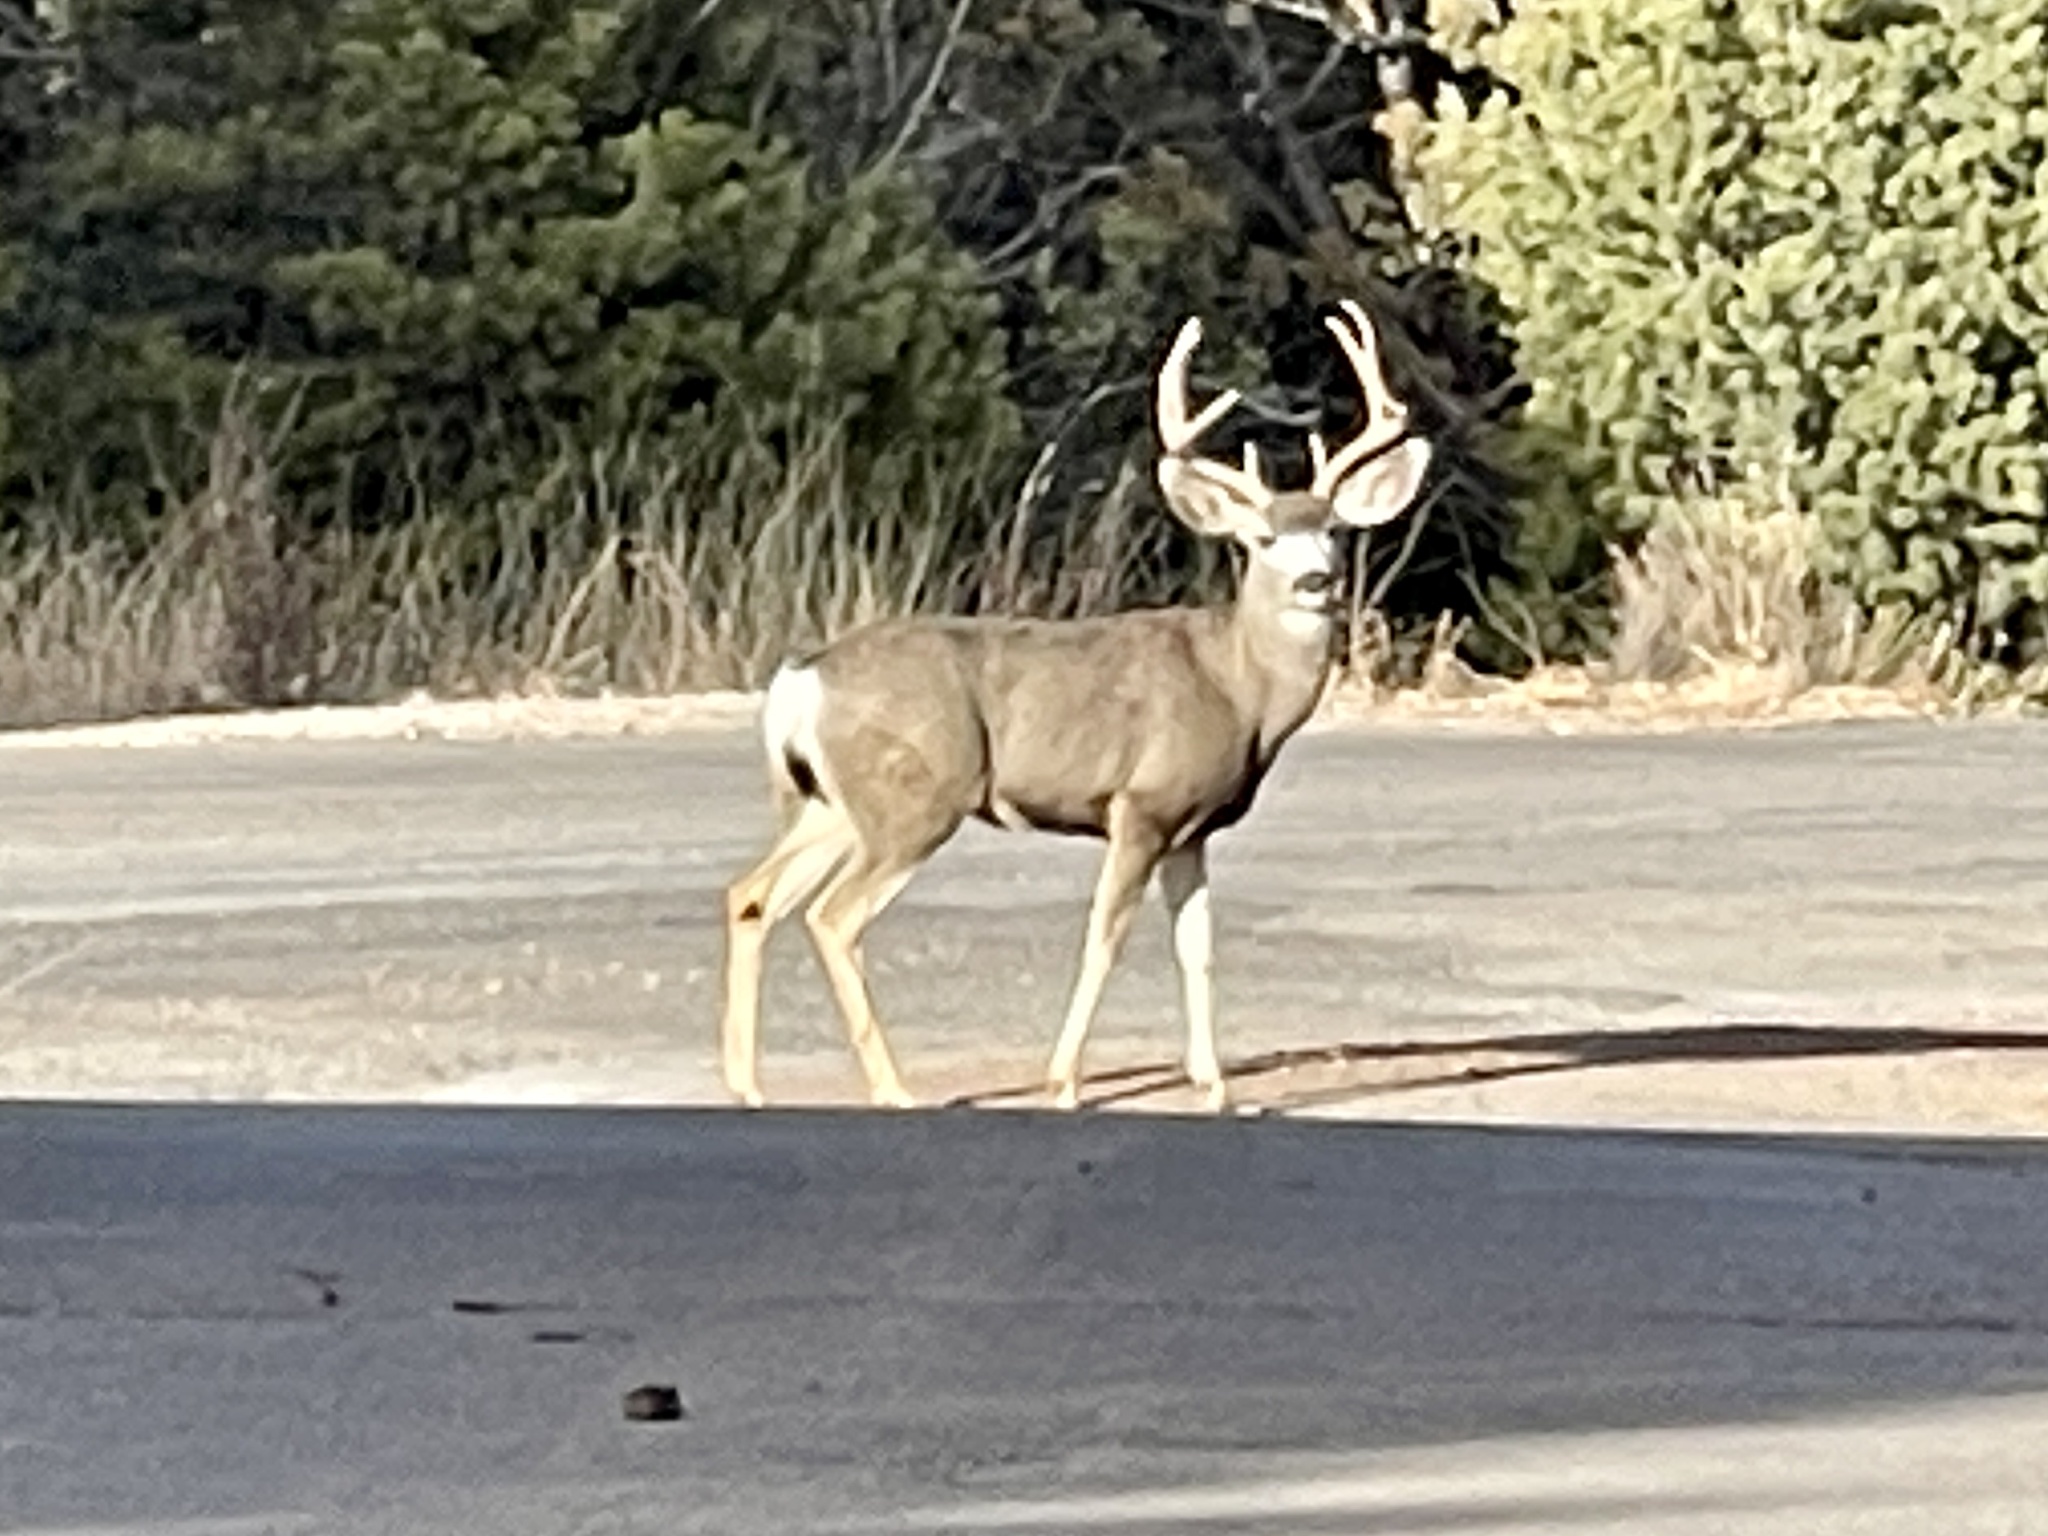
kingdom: Animalia
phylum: Chordata
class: Mammalia
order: Artiodactyla
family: Cervidae
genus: Odocoileus
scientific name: Odocoileus hemionus
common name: Mule deer
